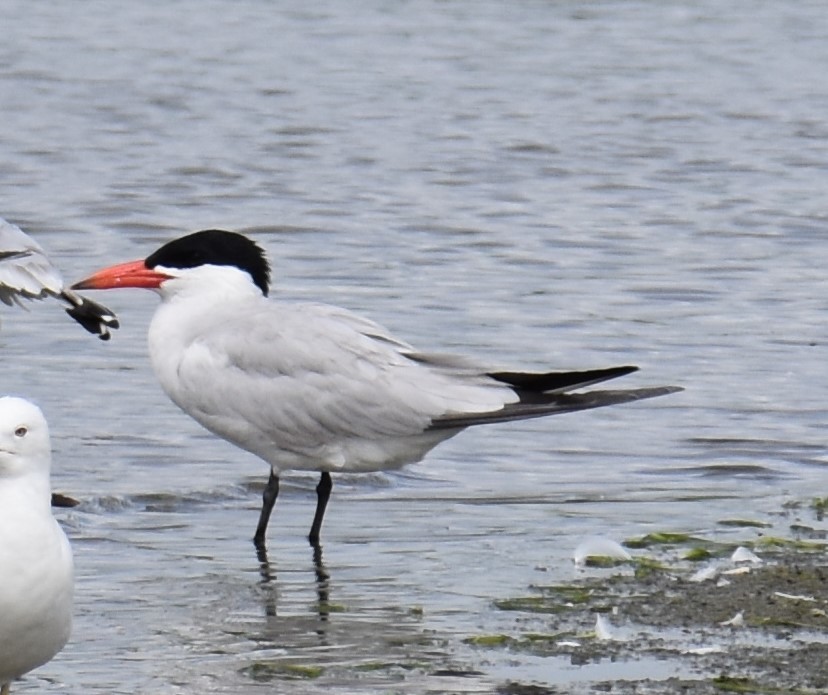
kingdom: Animalia
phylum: Chordata
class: Aves
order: Charadriiformes
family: Laridae
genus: Hydroprogne
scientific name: Hydroprogne caspia
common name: Caspian tern
